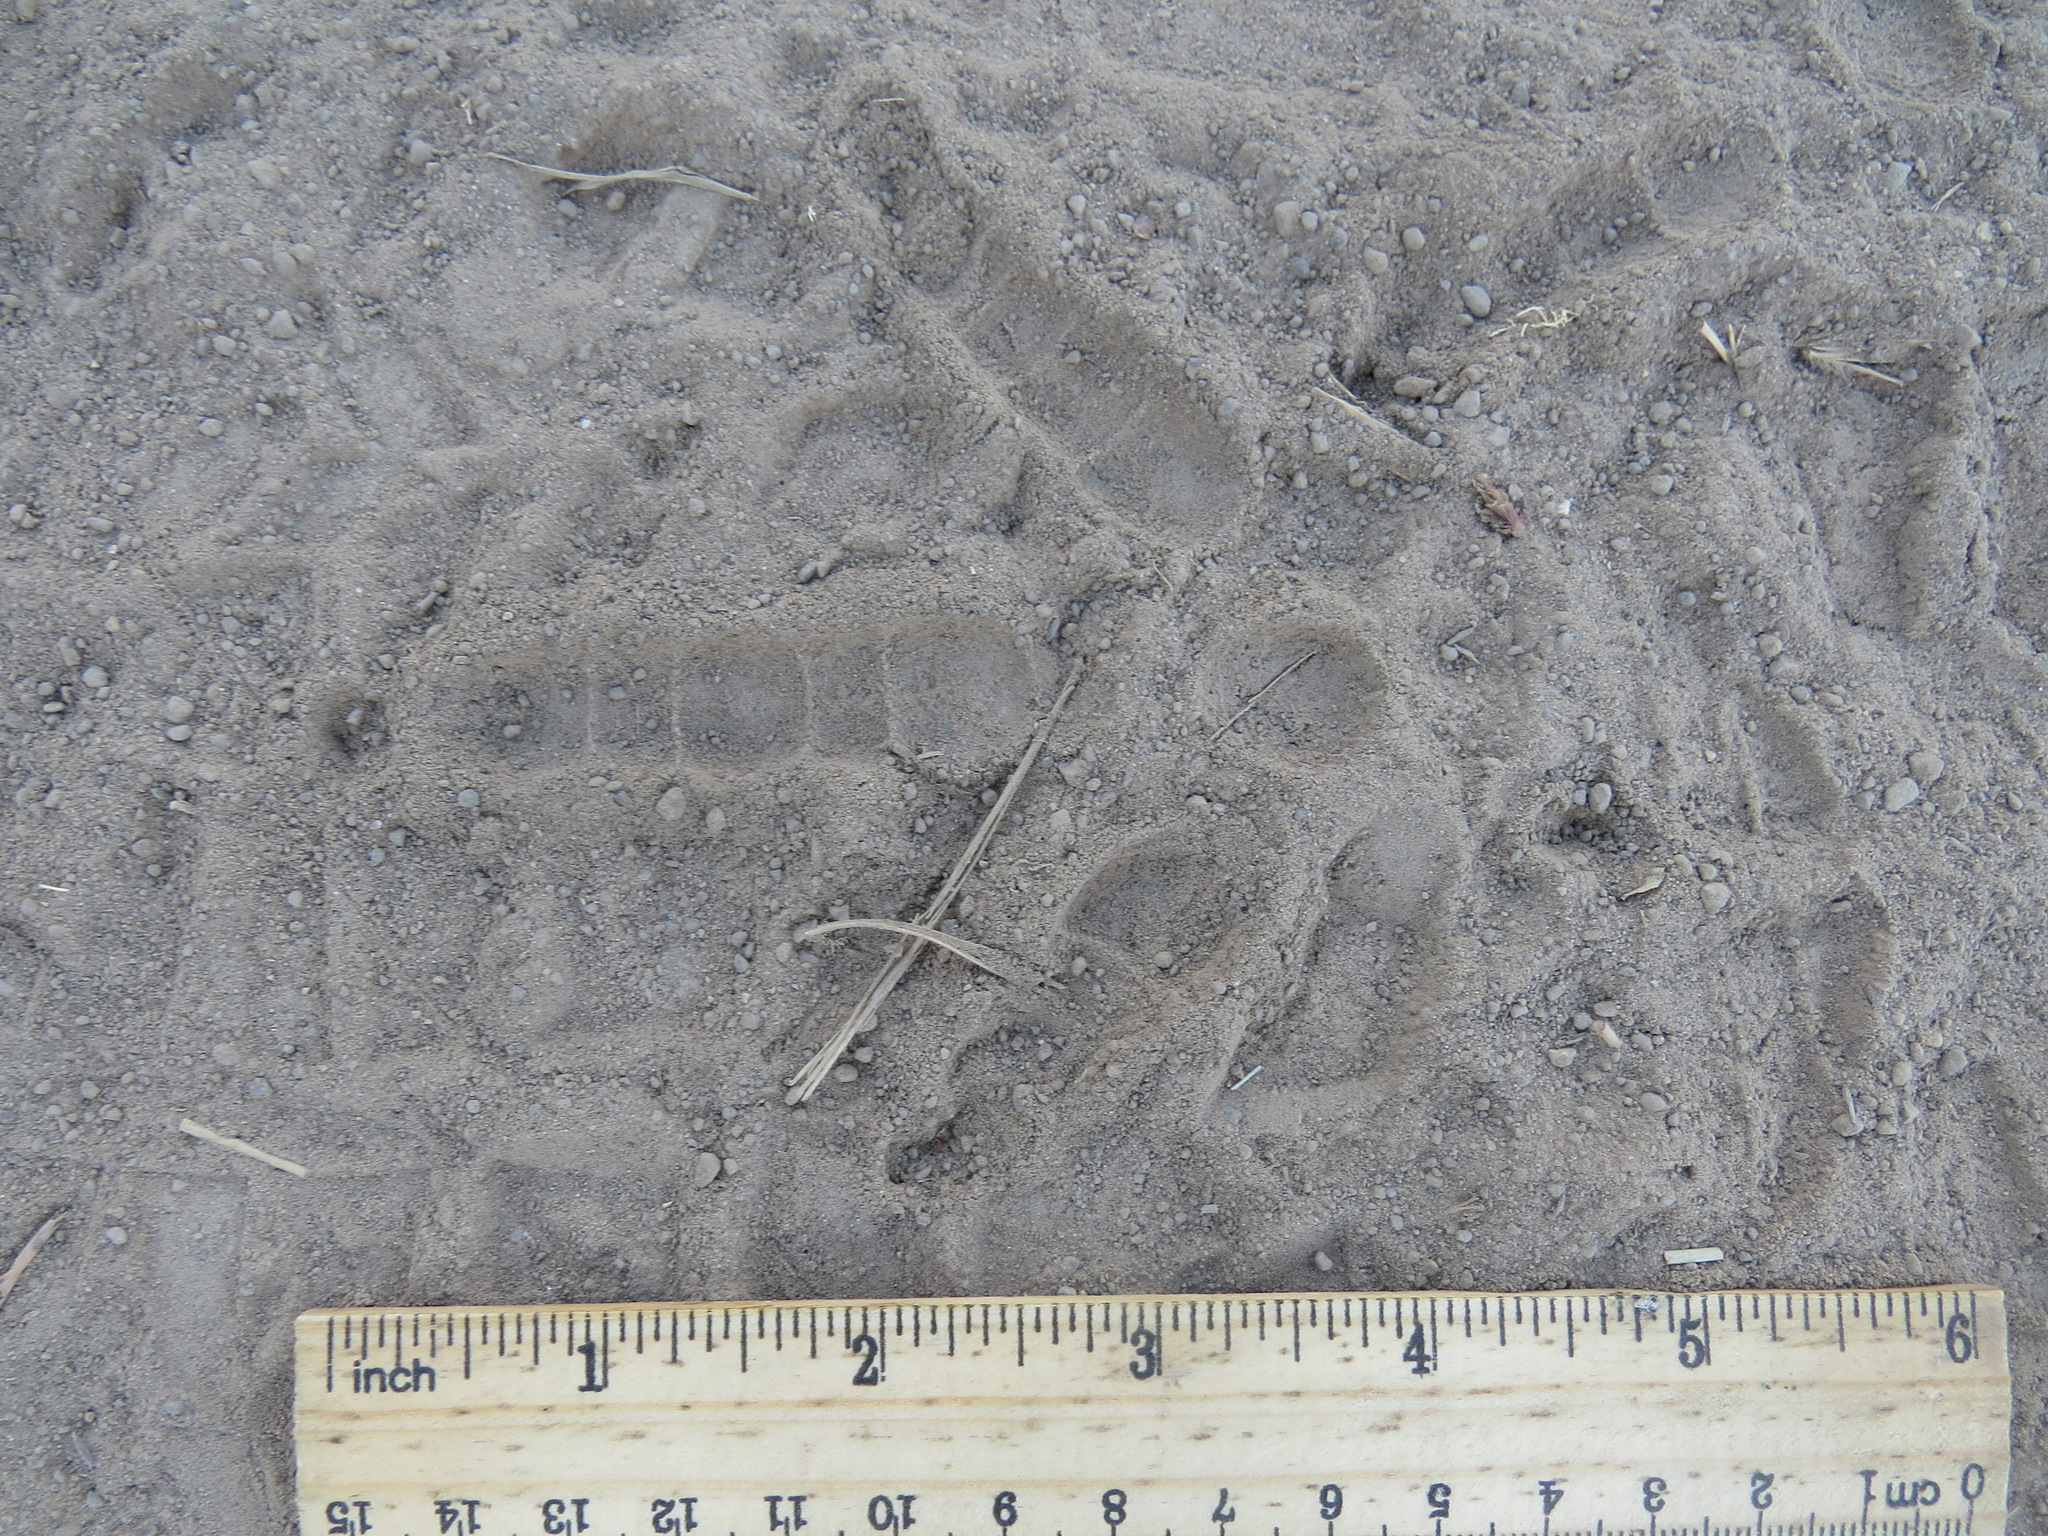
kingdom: Animalia
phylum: Chordata
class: Aves
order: Galliformes
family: Phasianidae
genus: Meleagris
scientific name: Meleagris gallopavo
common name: Wild turkey
